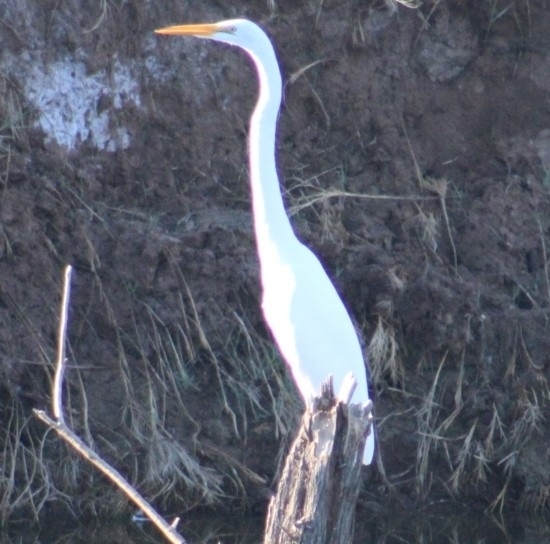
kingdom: Animalia
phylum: Chordata
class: Aves
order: Pelecaniformes
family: Ardeidae
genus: Ardea
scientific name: Ardea alba
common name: Great egret
